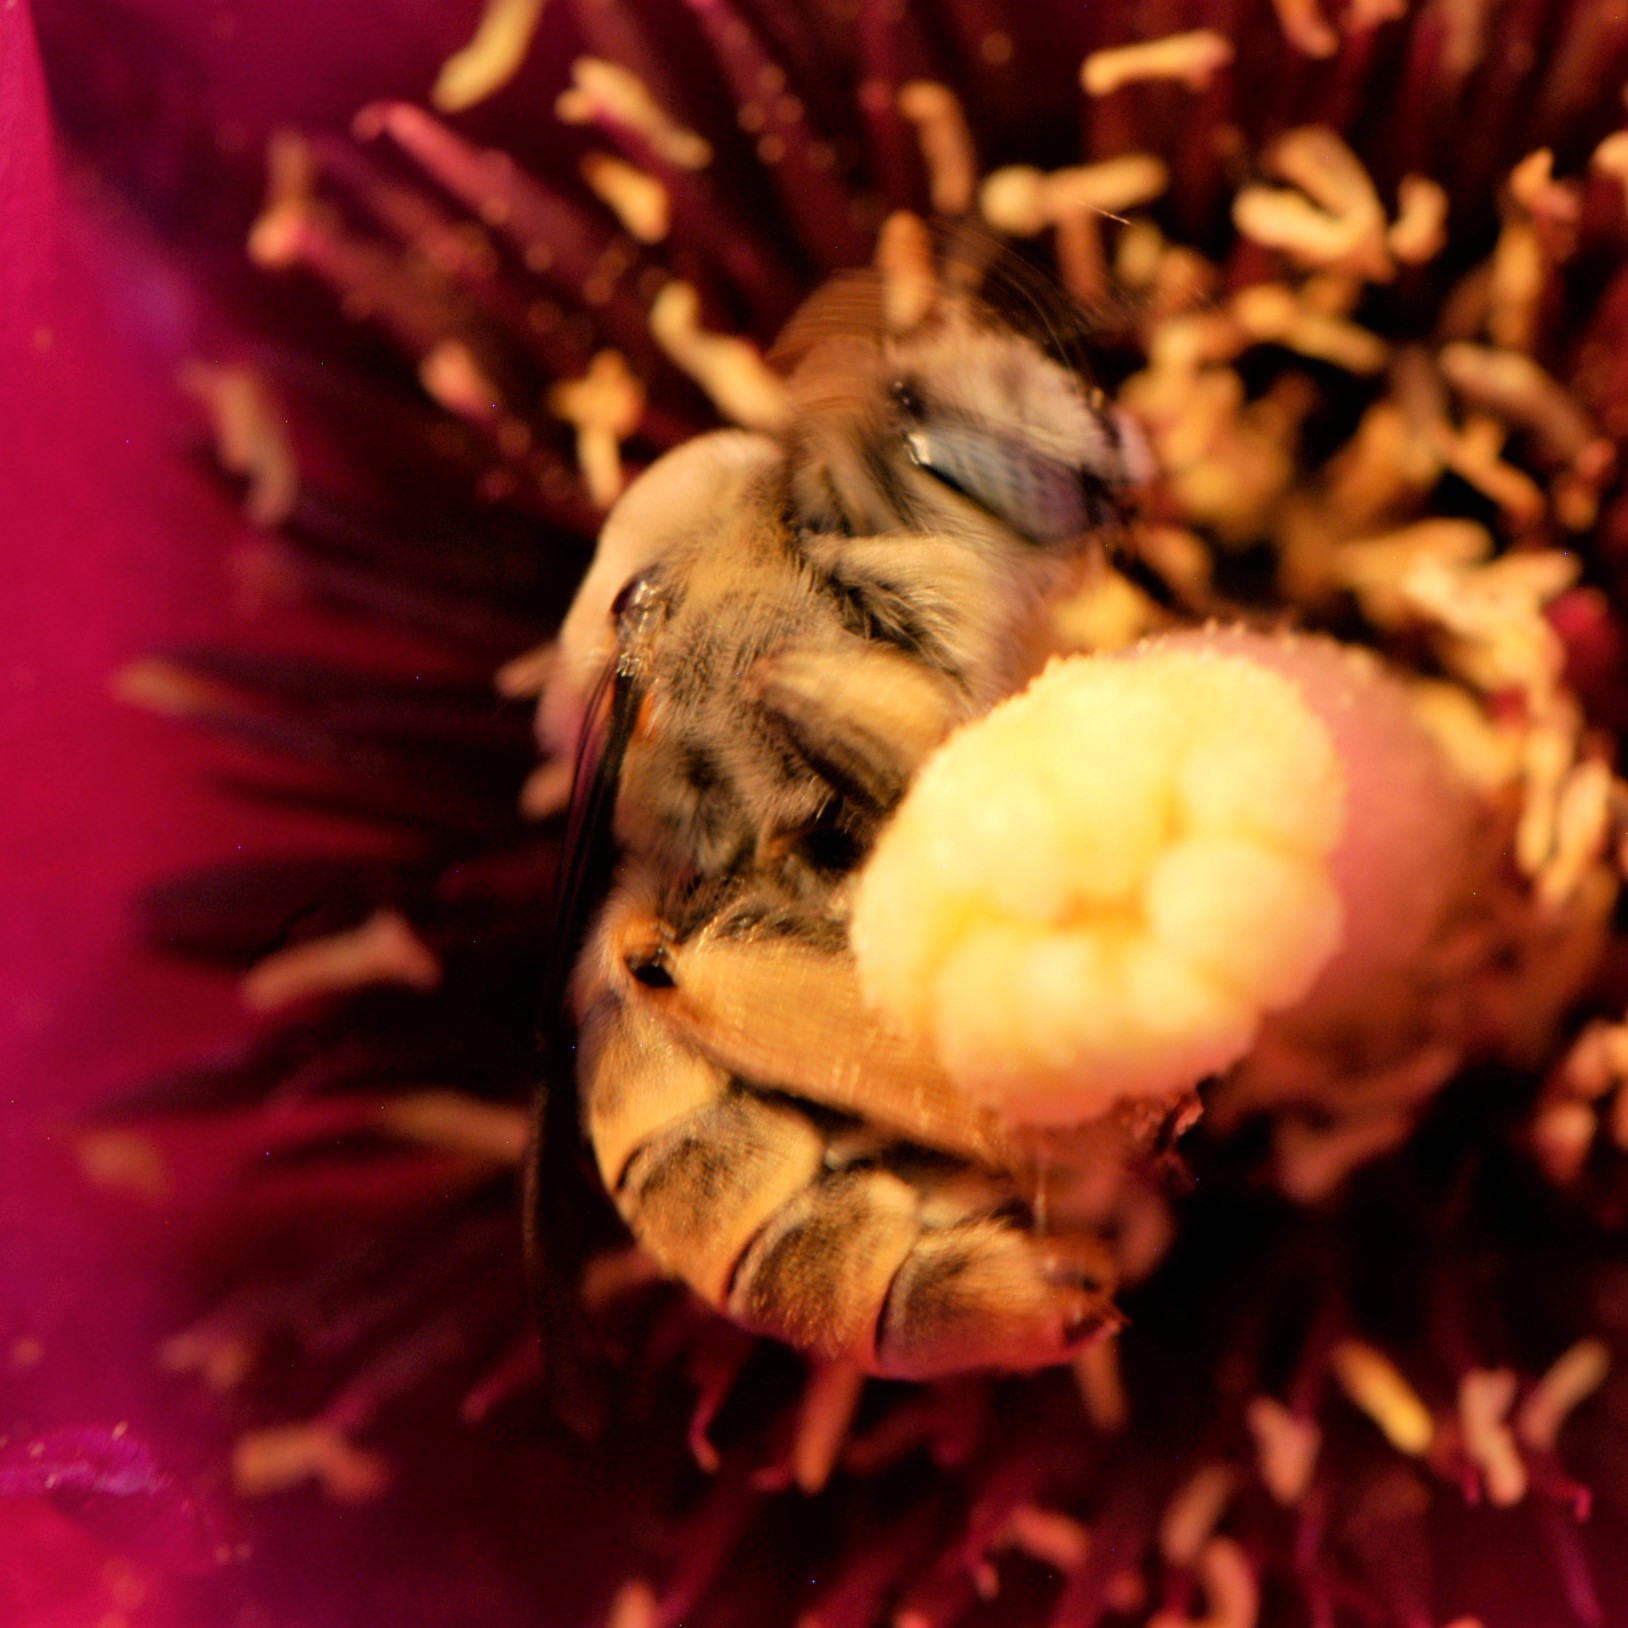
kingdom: Animalia
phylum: Arthropoda
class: Insecta
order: Hymenoptera
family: Apidae
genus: Diadasia
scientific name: Diadasia
